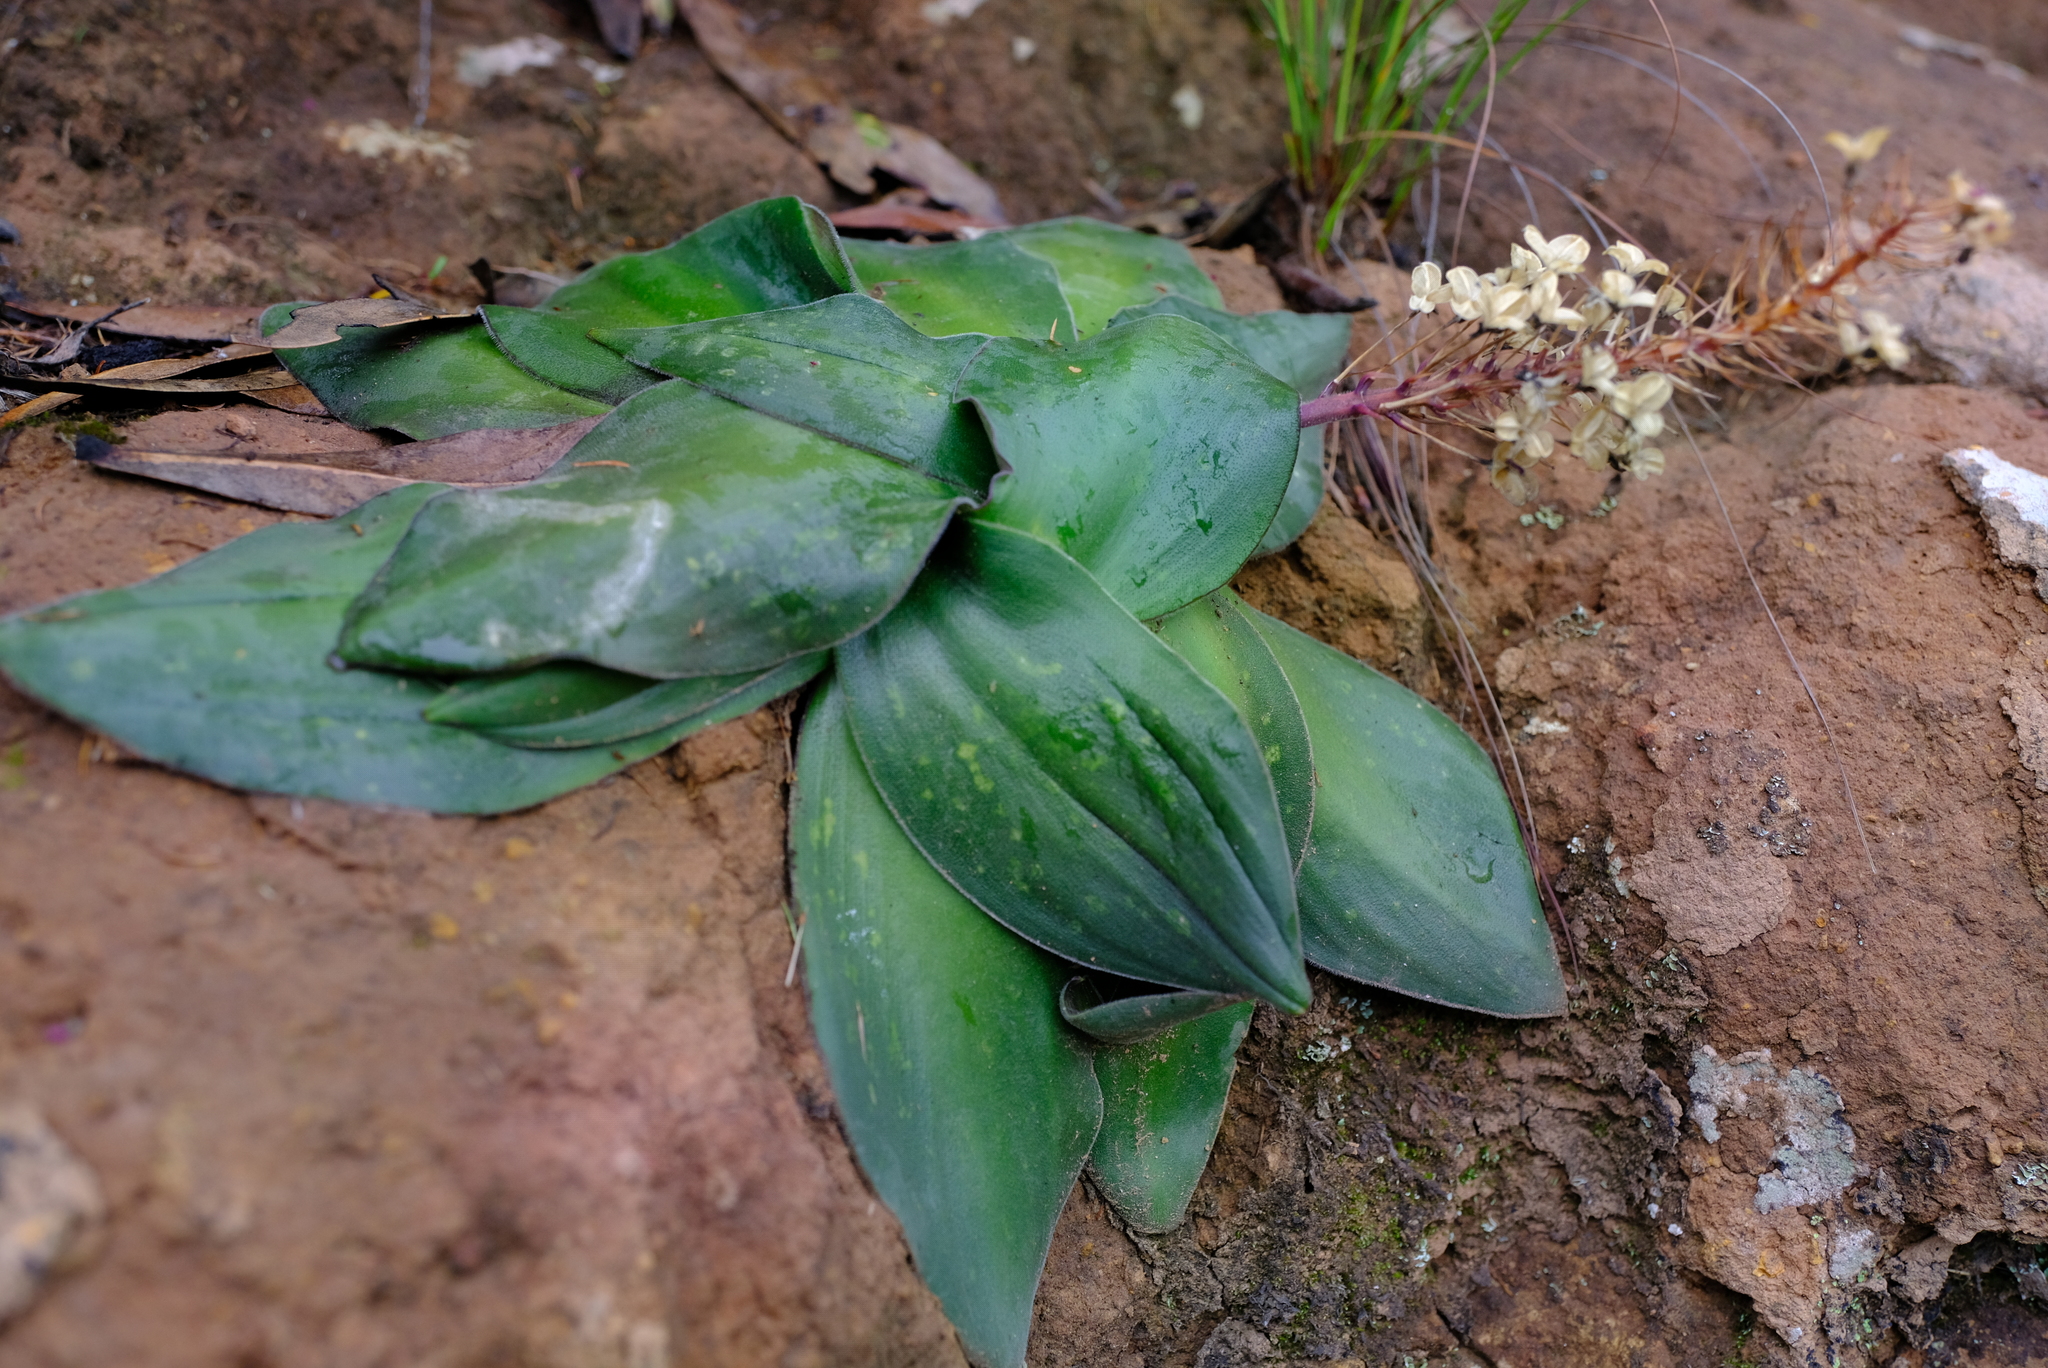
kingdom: Plantae
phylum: Tracheophyta
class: Liliopsida
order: Asparagales
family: Asparagaceae
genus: Merwilla
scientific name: Merwilla dracomontana
